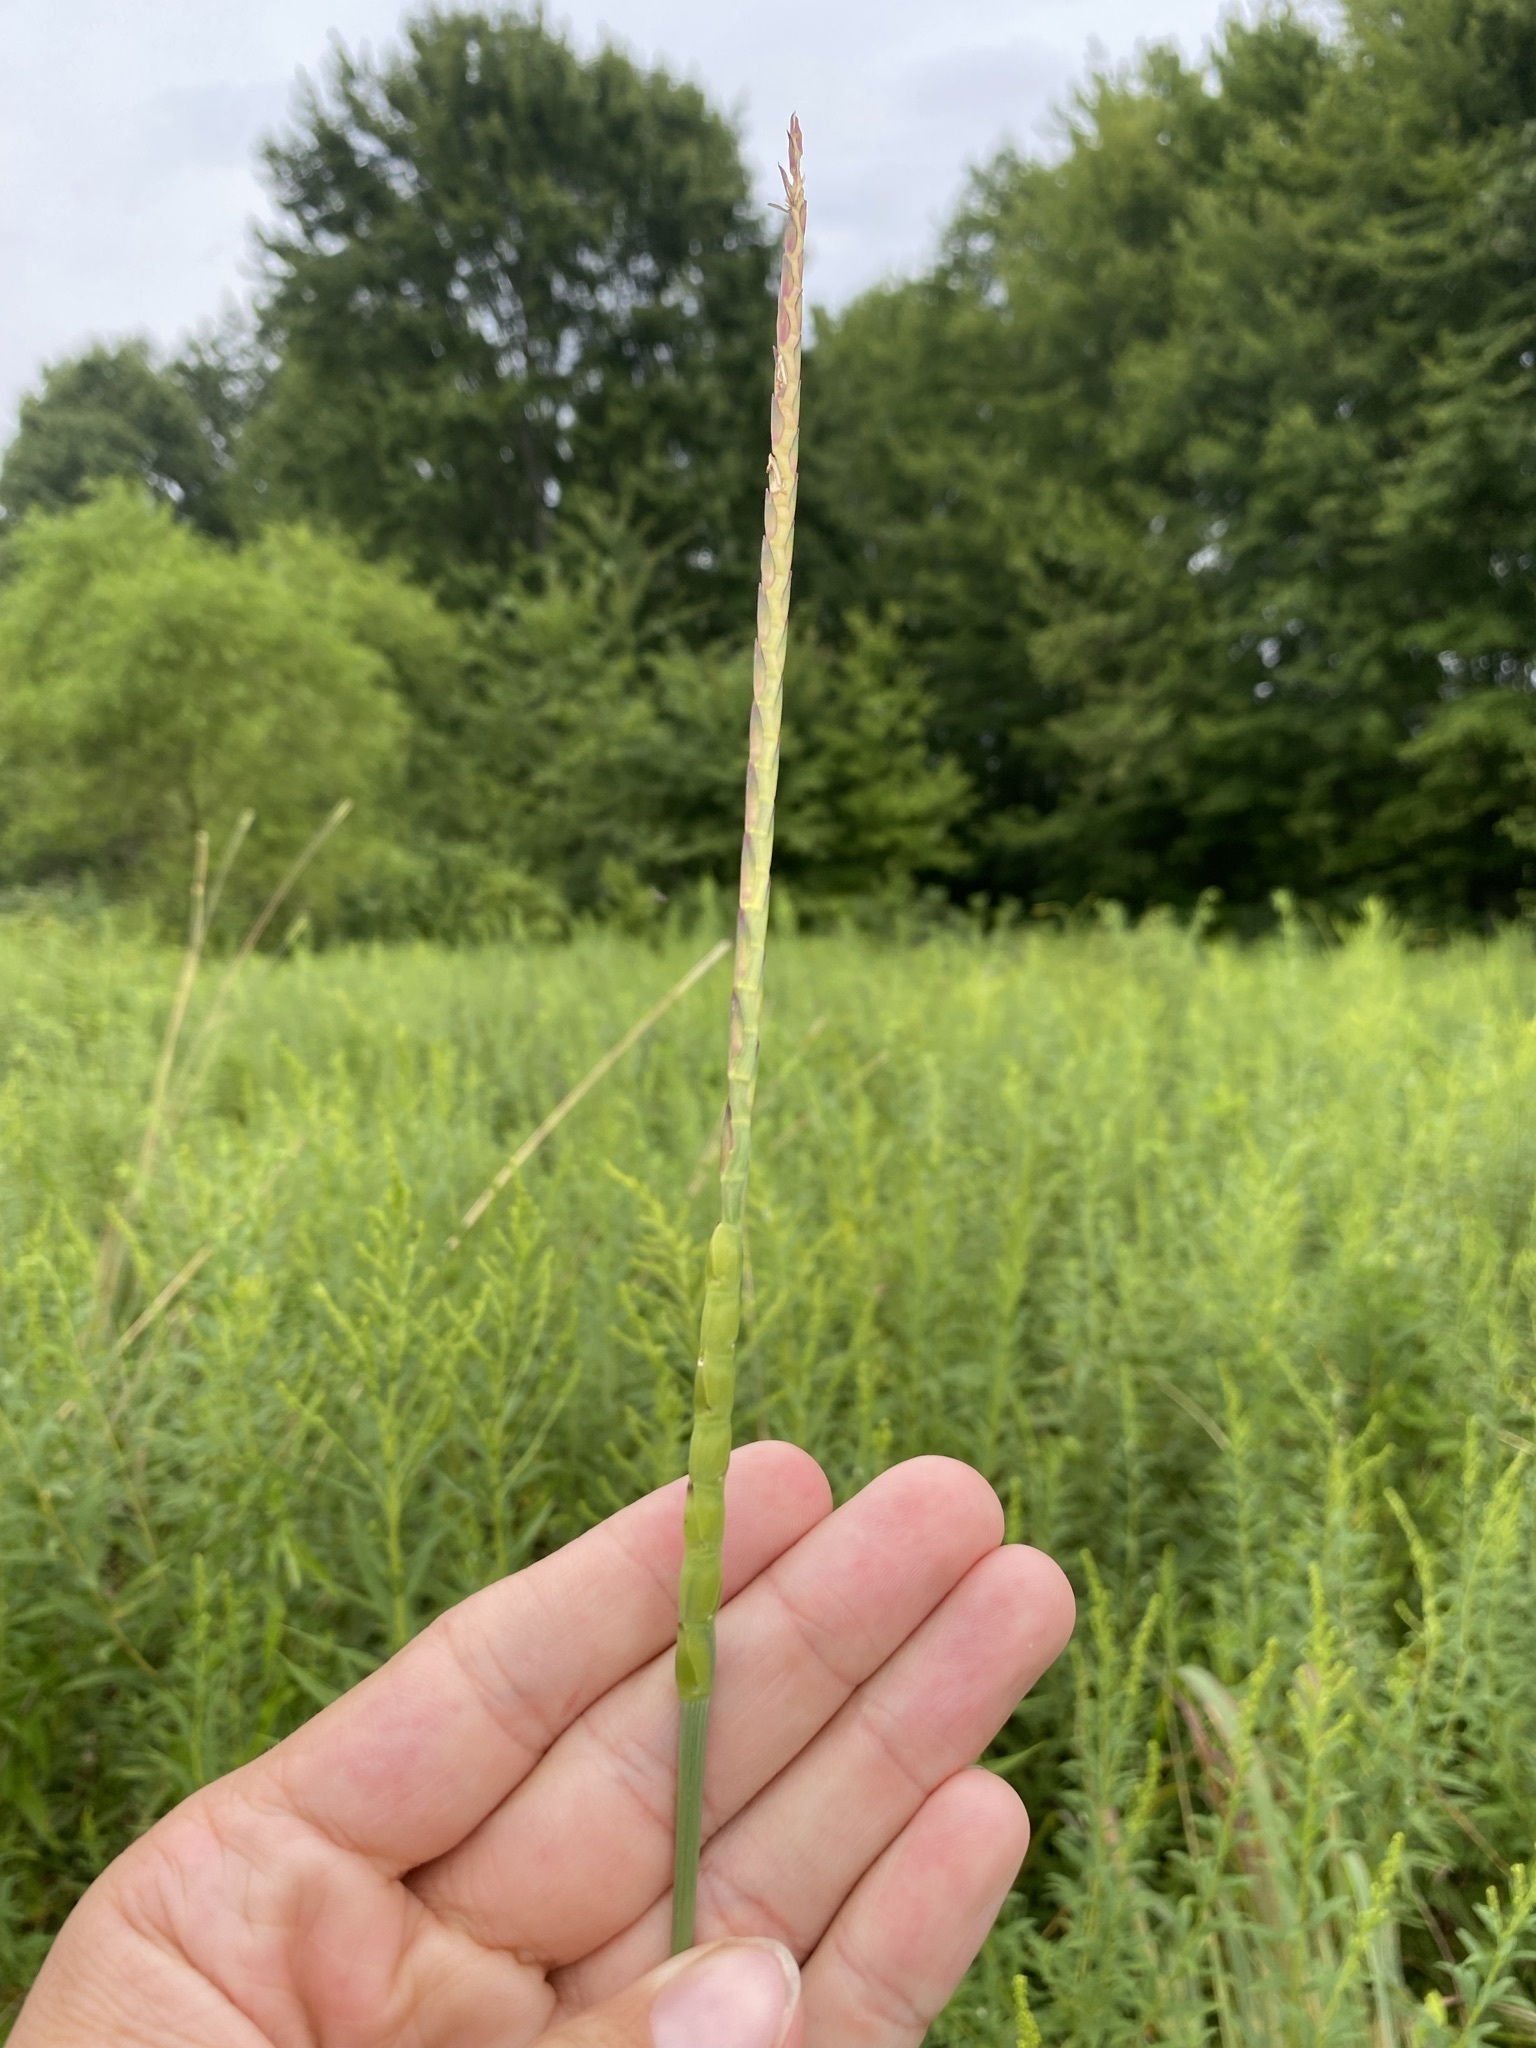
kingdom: Plantae
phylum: Tracheophyta
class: Liliopsida
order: Poales
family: Poaceae
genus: Tripsacum
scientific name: Tripsacum dactyloides
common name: Buffalo-grass
